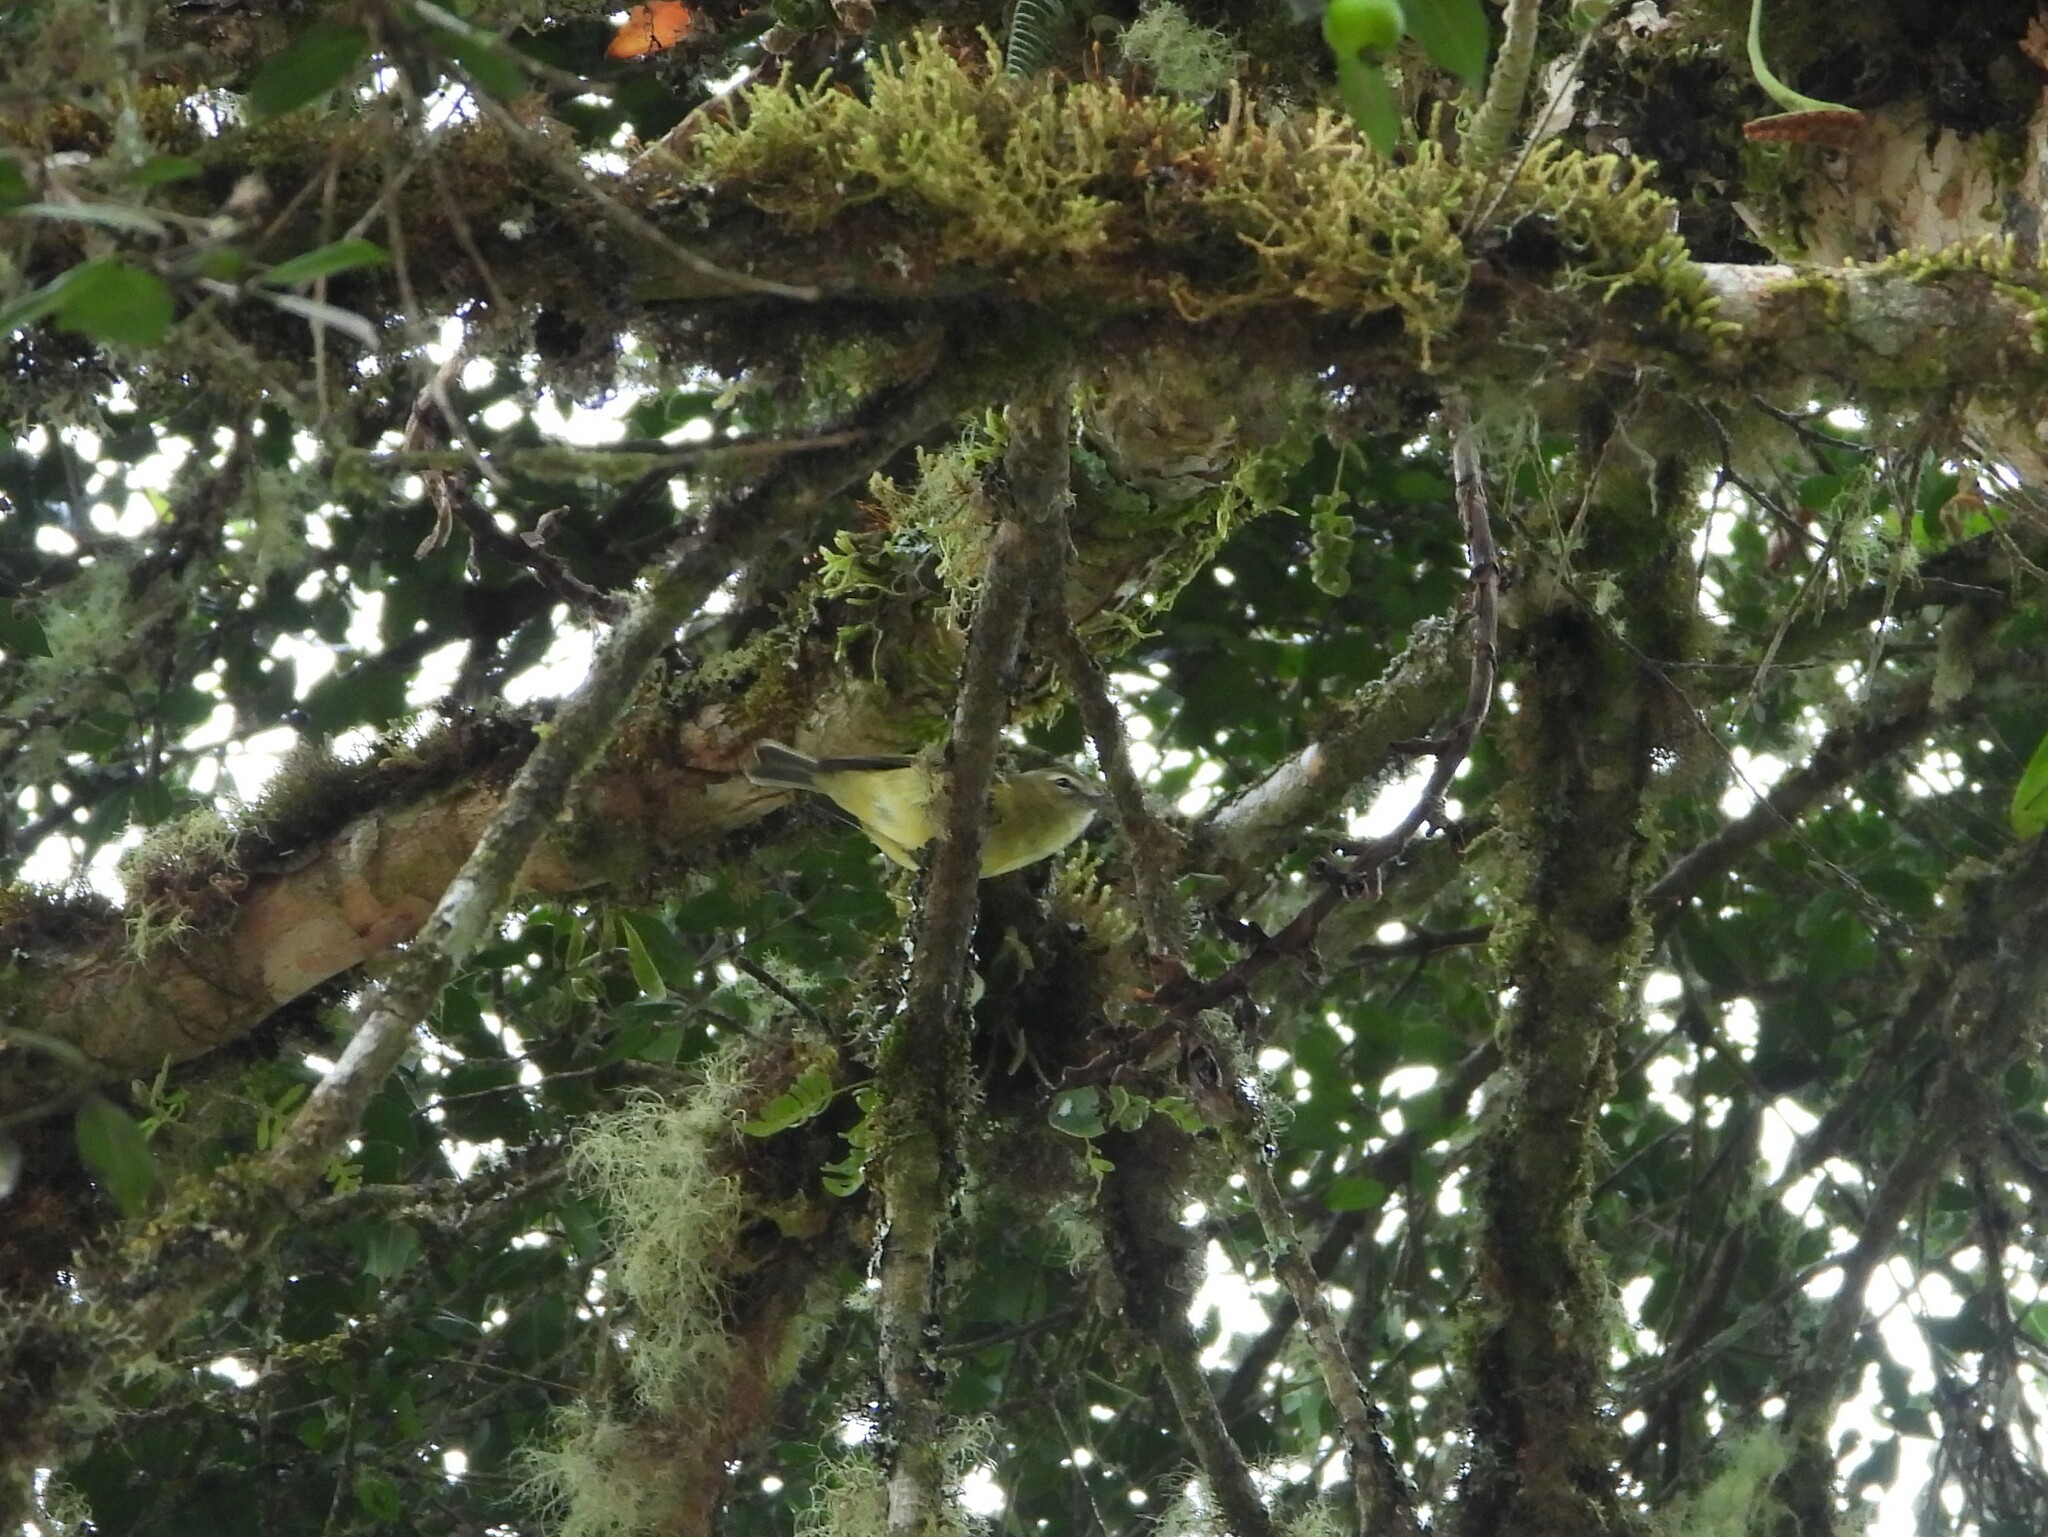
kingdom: Animalia
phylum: Chordata
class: Aves
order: Passeriformes
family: Vireonidae
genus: Vireo
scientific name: Vireo carmioli
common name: Yellow-winged vireo
